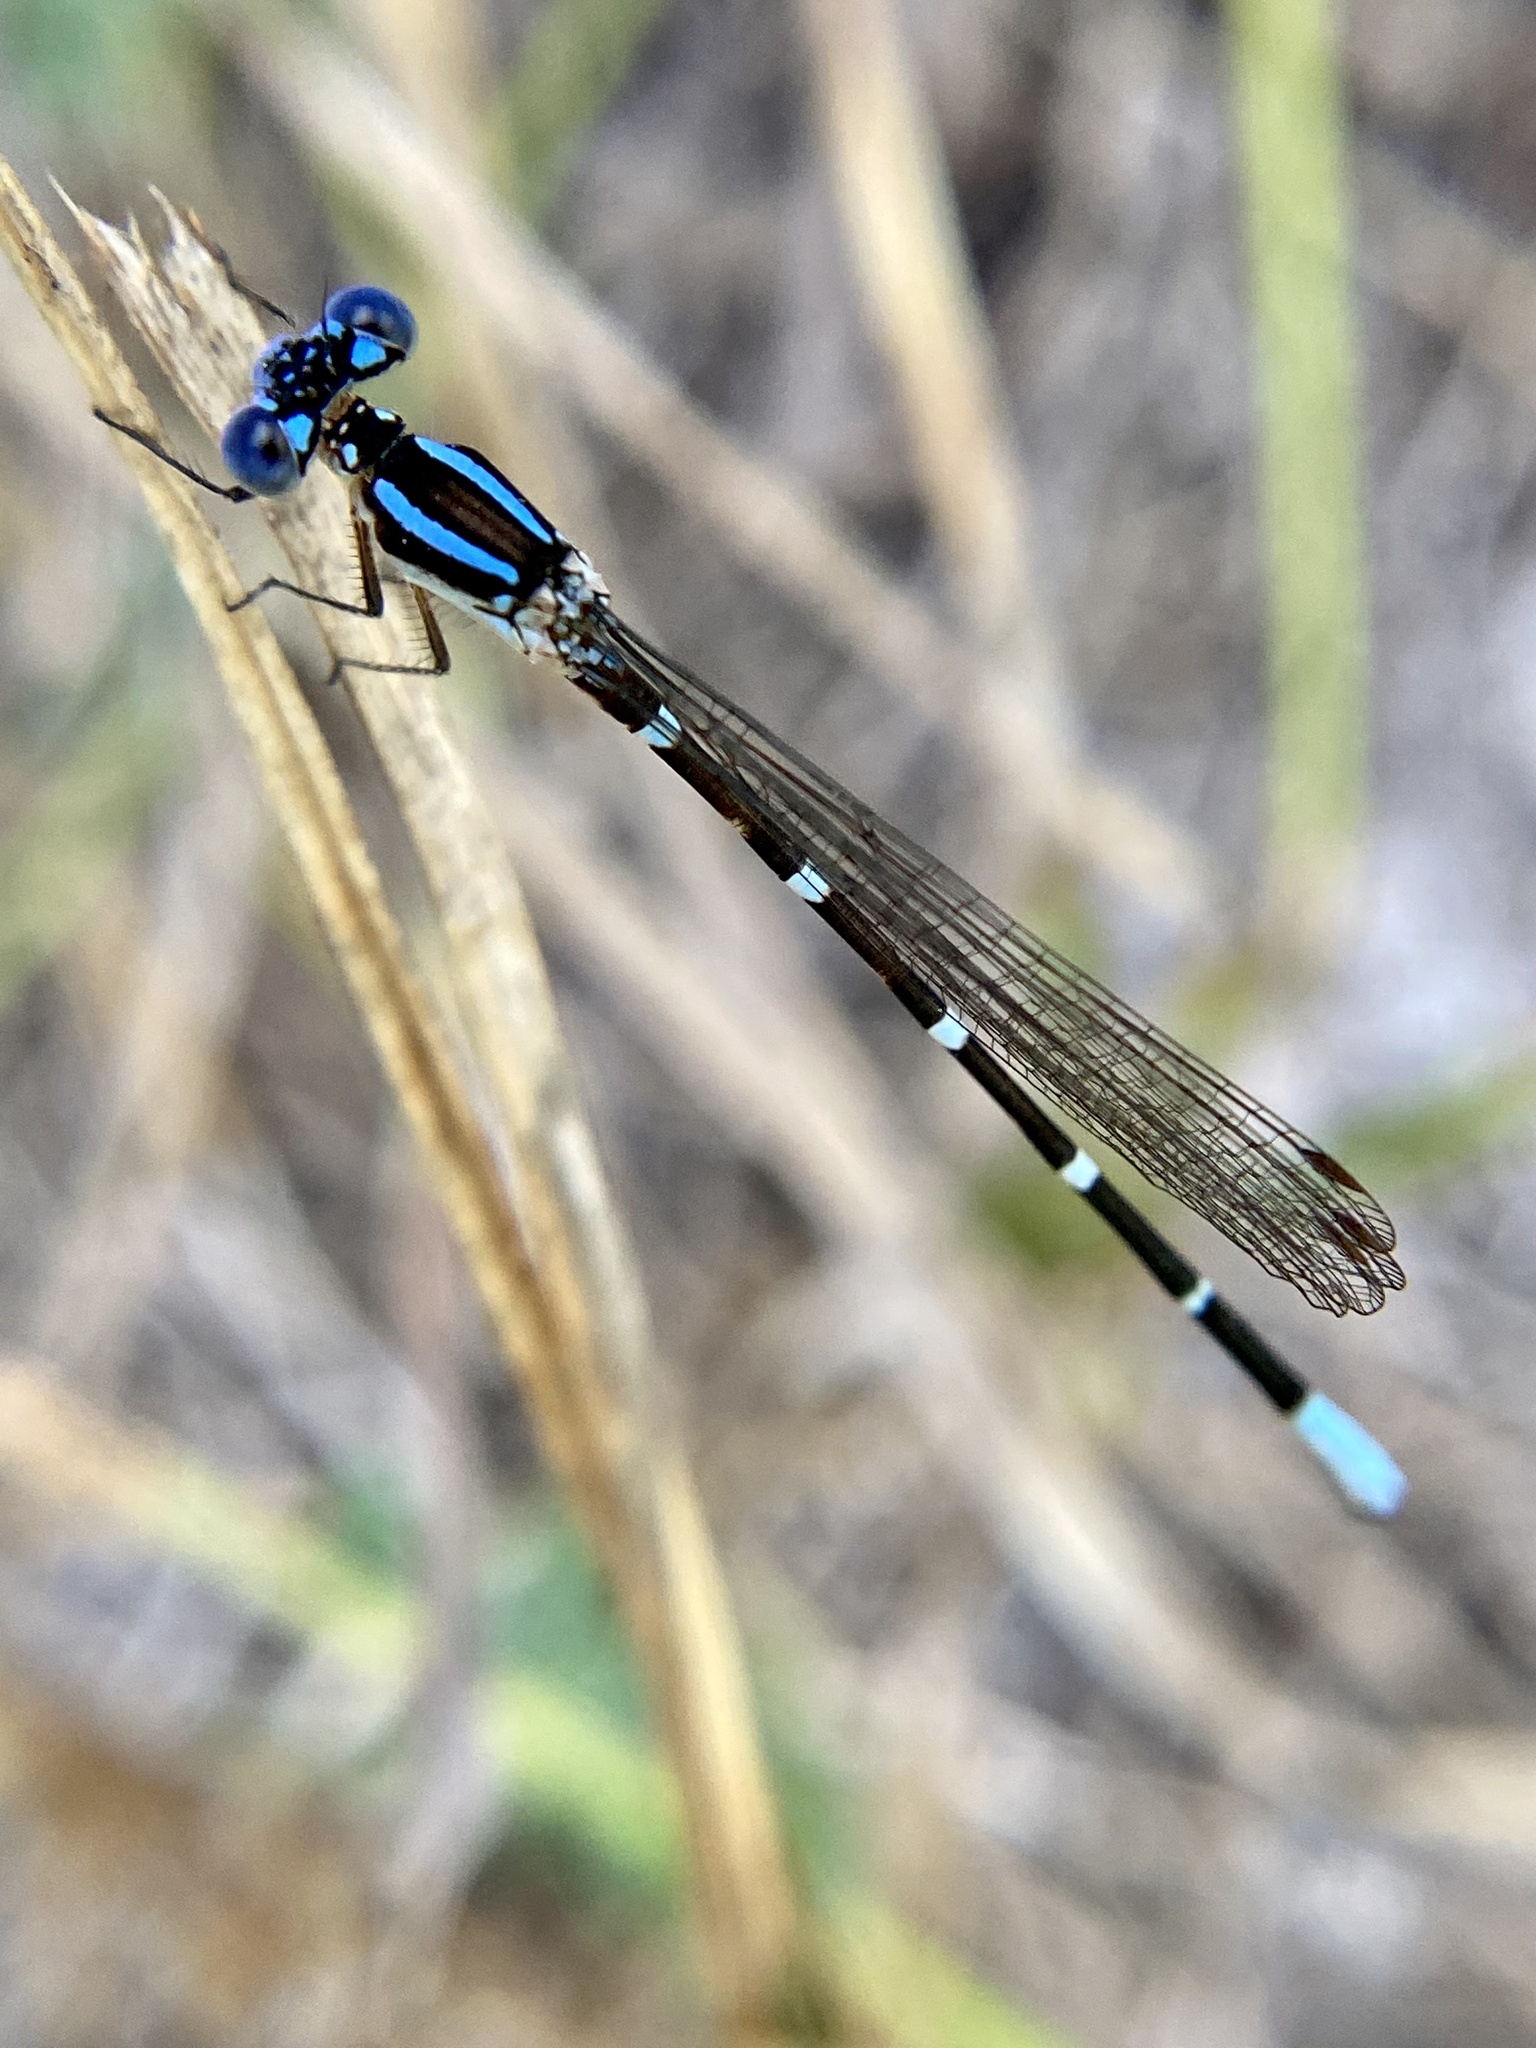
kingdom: Animalia
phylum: Arthropoda
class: Insecta
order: Odonata
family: Coenagrionidae
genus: Argia
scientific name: Argia sedula
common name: Blue-ringed dancer
